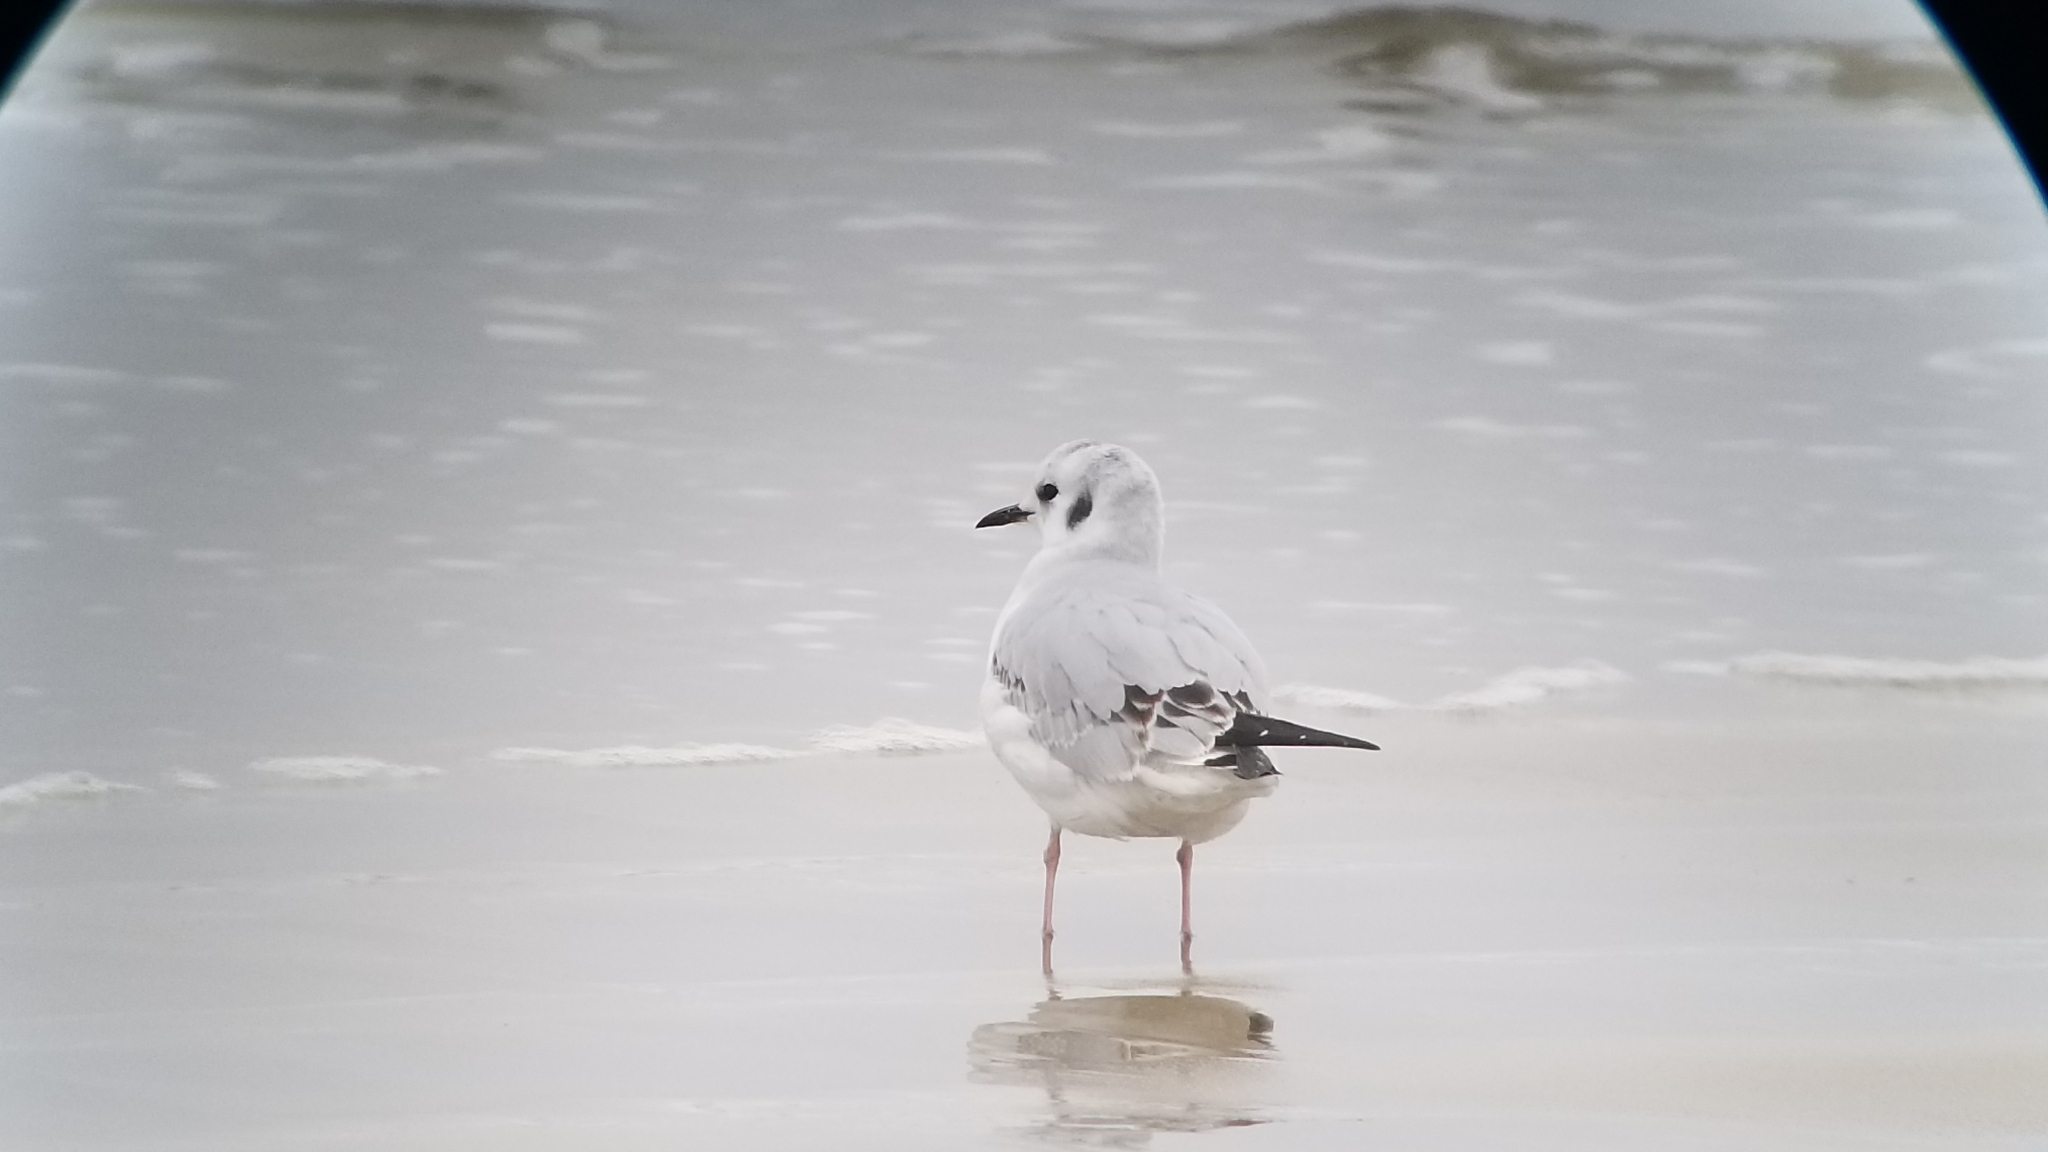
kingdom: Animalia
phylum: Chordata
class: Aves
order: Charadriiformes
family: Laridae
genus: Chroicocephalus
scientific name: Chroicocephalus philadelphia
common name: Bonaparte's gull
